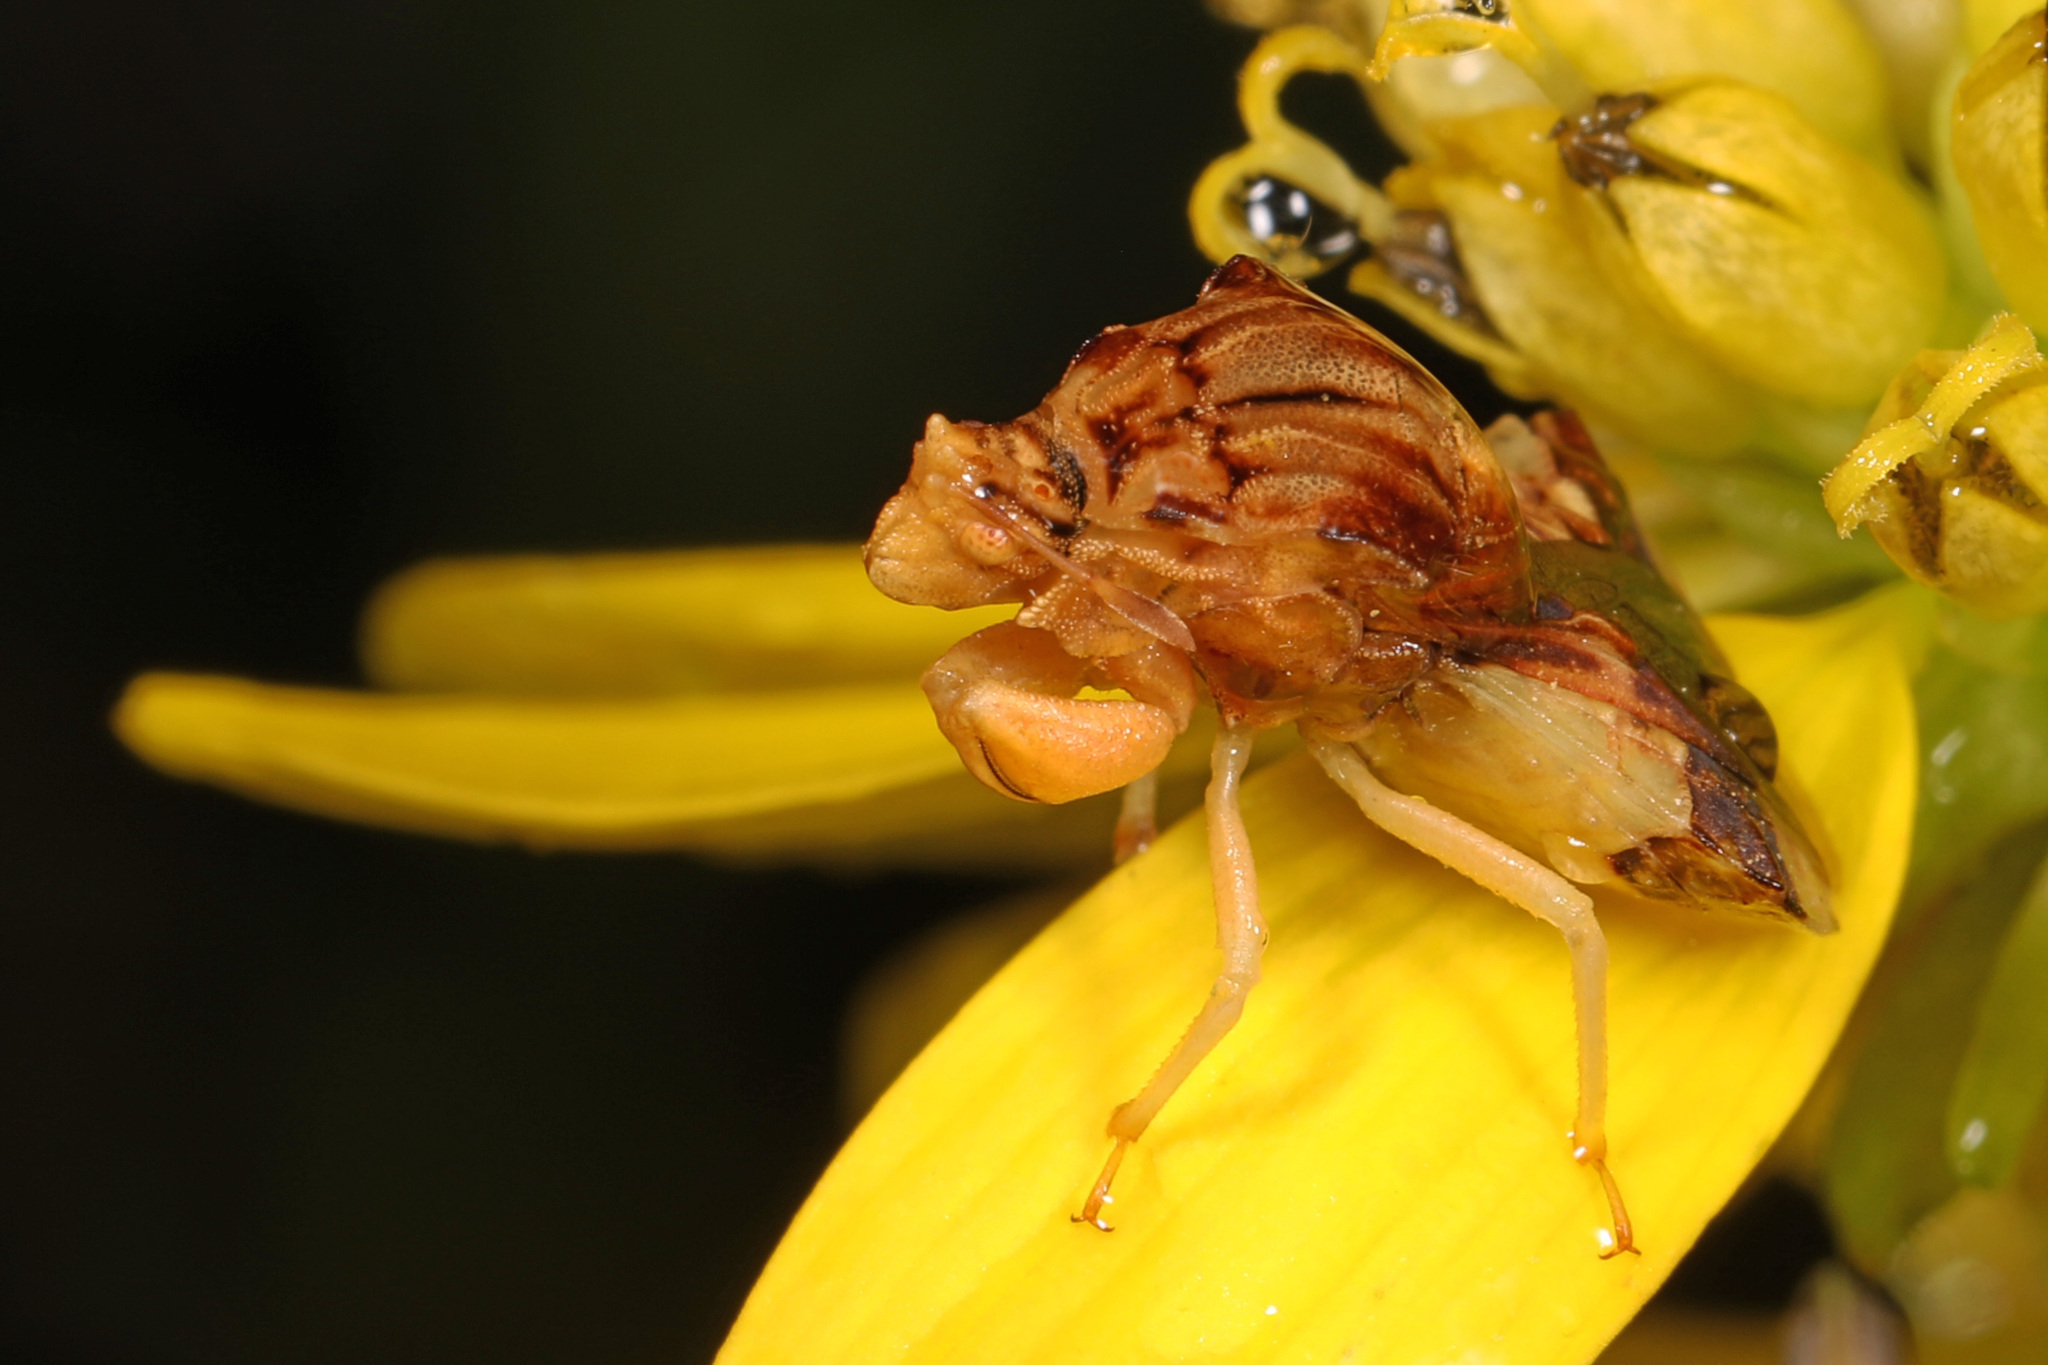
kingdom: Animalia
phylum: Arthropoda
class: Insecta
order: Hemiptera
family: Reduviidae
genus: Phymata
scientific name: Phymata fasciata
